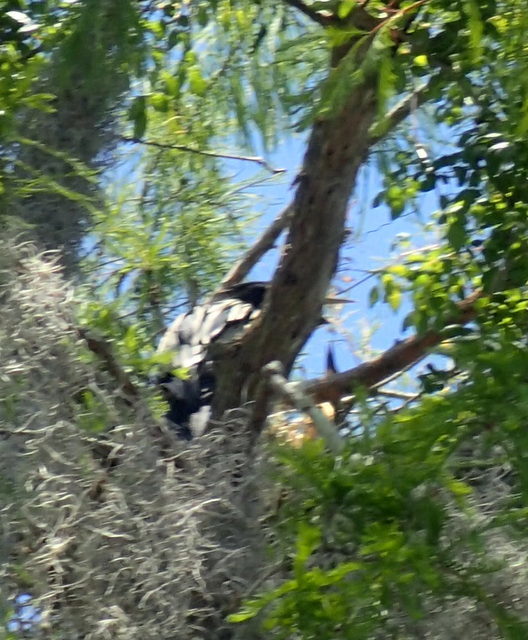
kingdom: Animalia
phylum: Chordata
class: Aves
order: Suliformes
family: Anhingidae
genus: Anhinga
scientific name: Anhinga anhinga
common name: Anhinga
